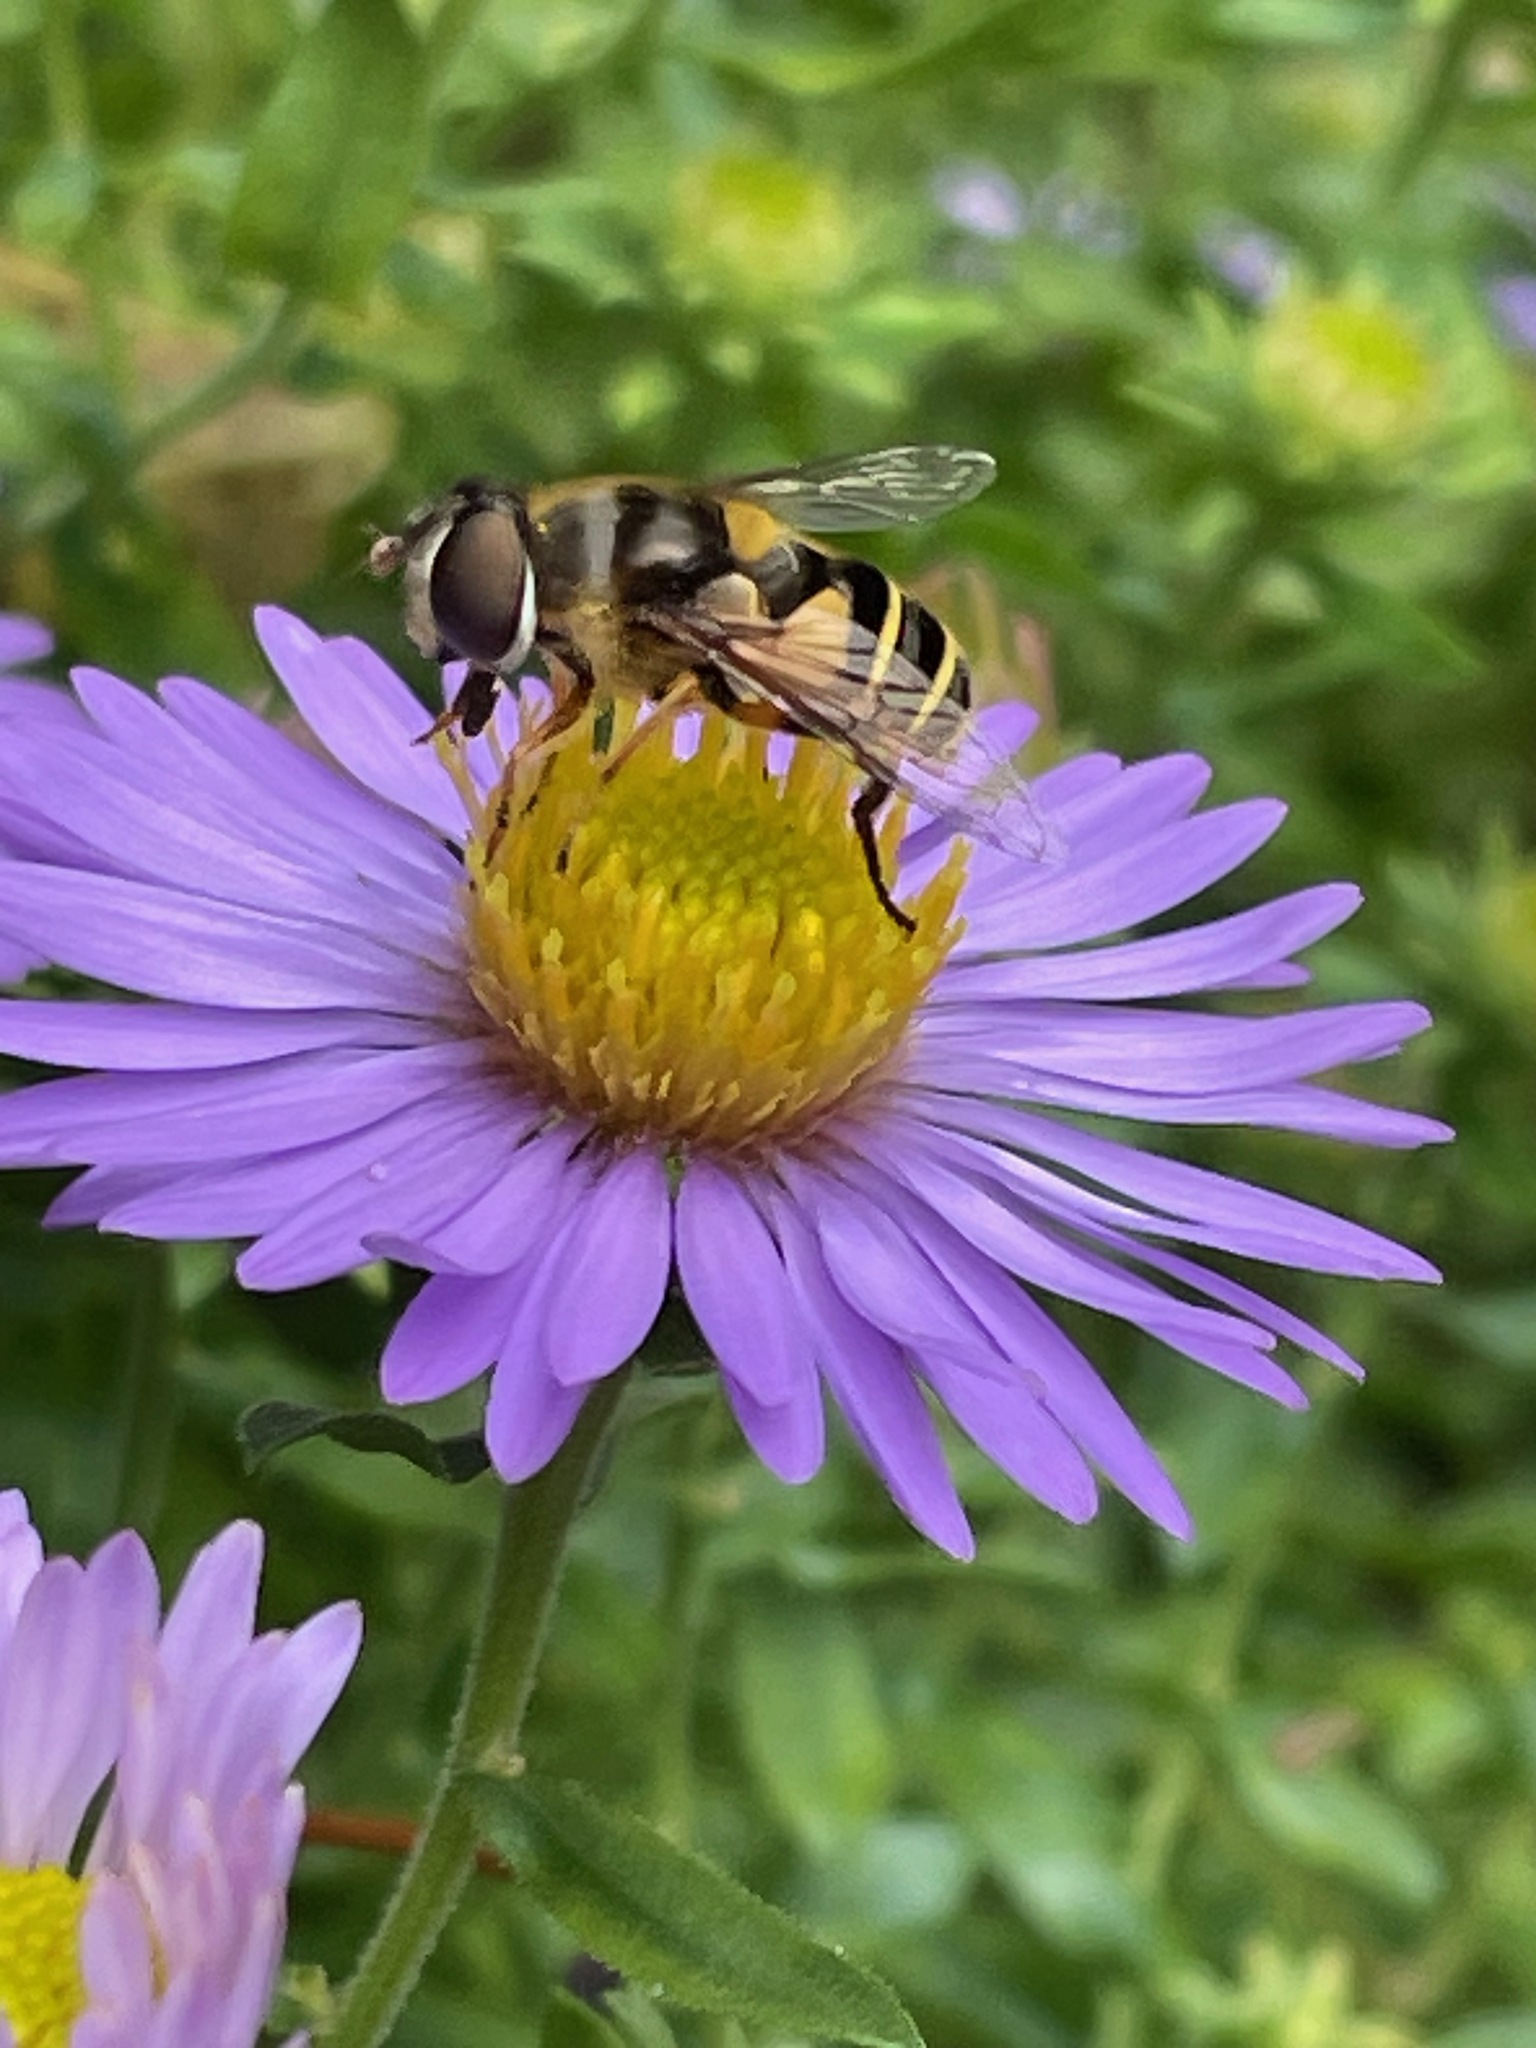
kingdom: Animalia
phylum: Arthropoda
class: Insecta
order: Diptera
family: Syrphidae
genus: Eristalis
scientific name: Eristalis transversa
